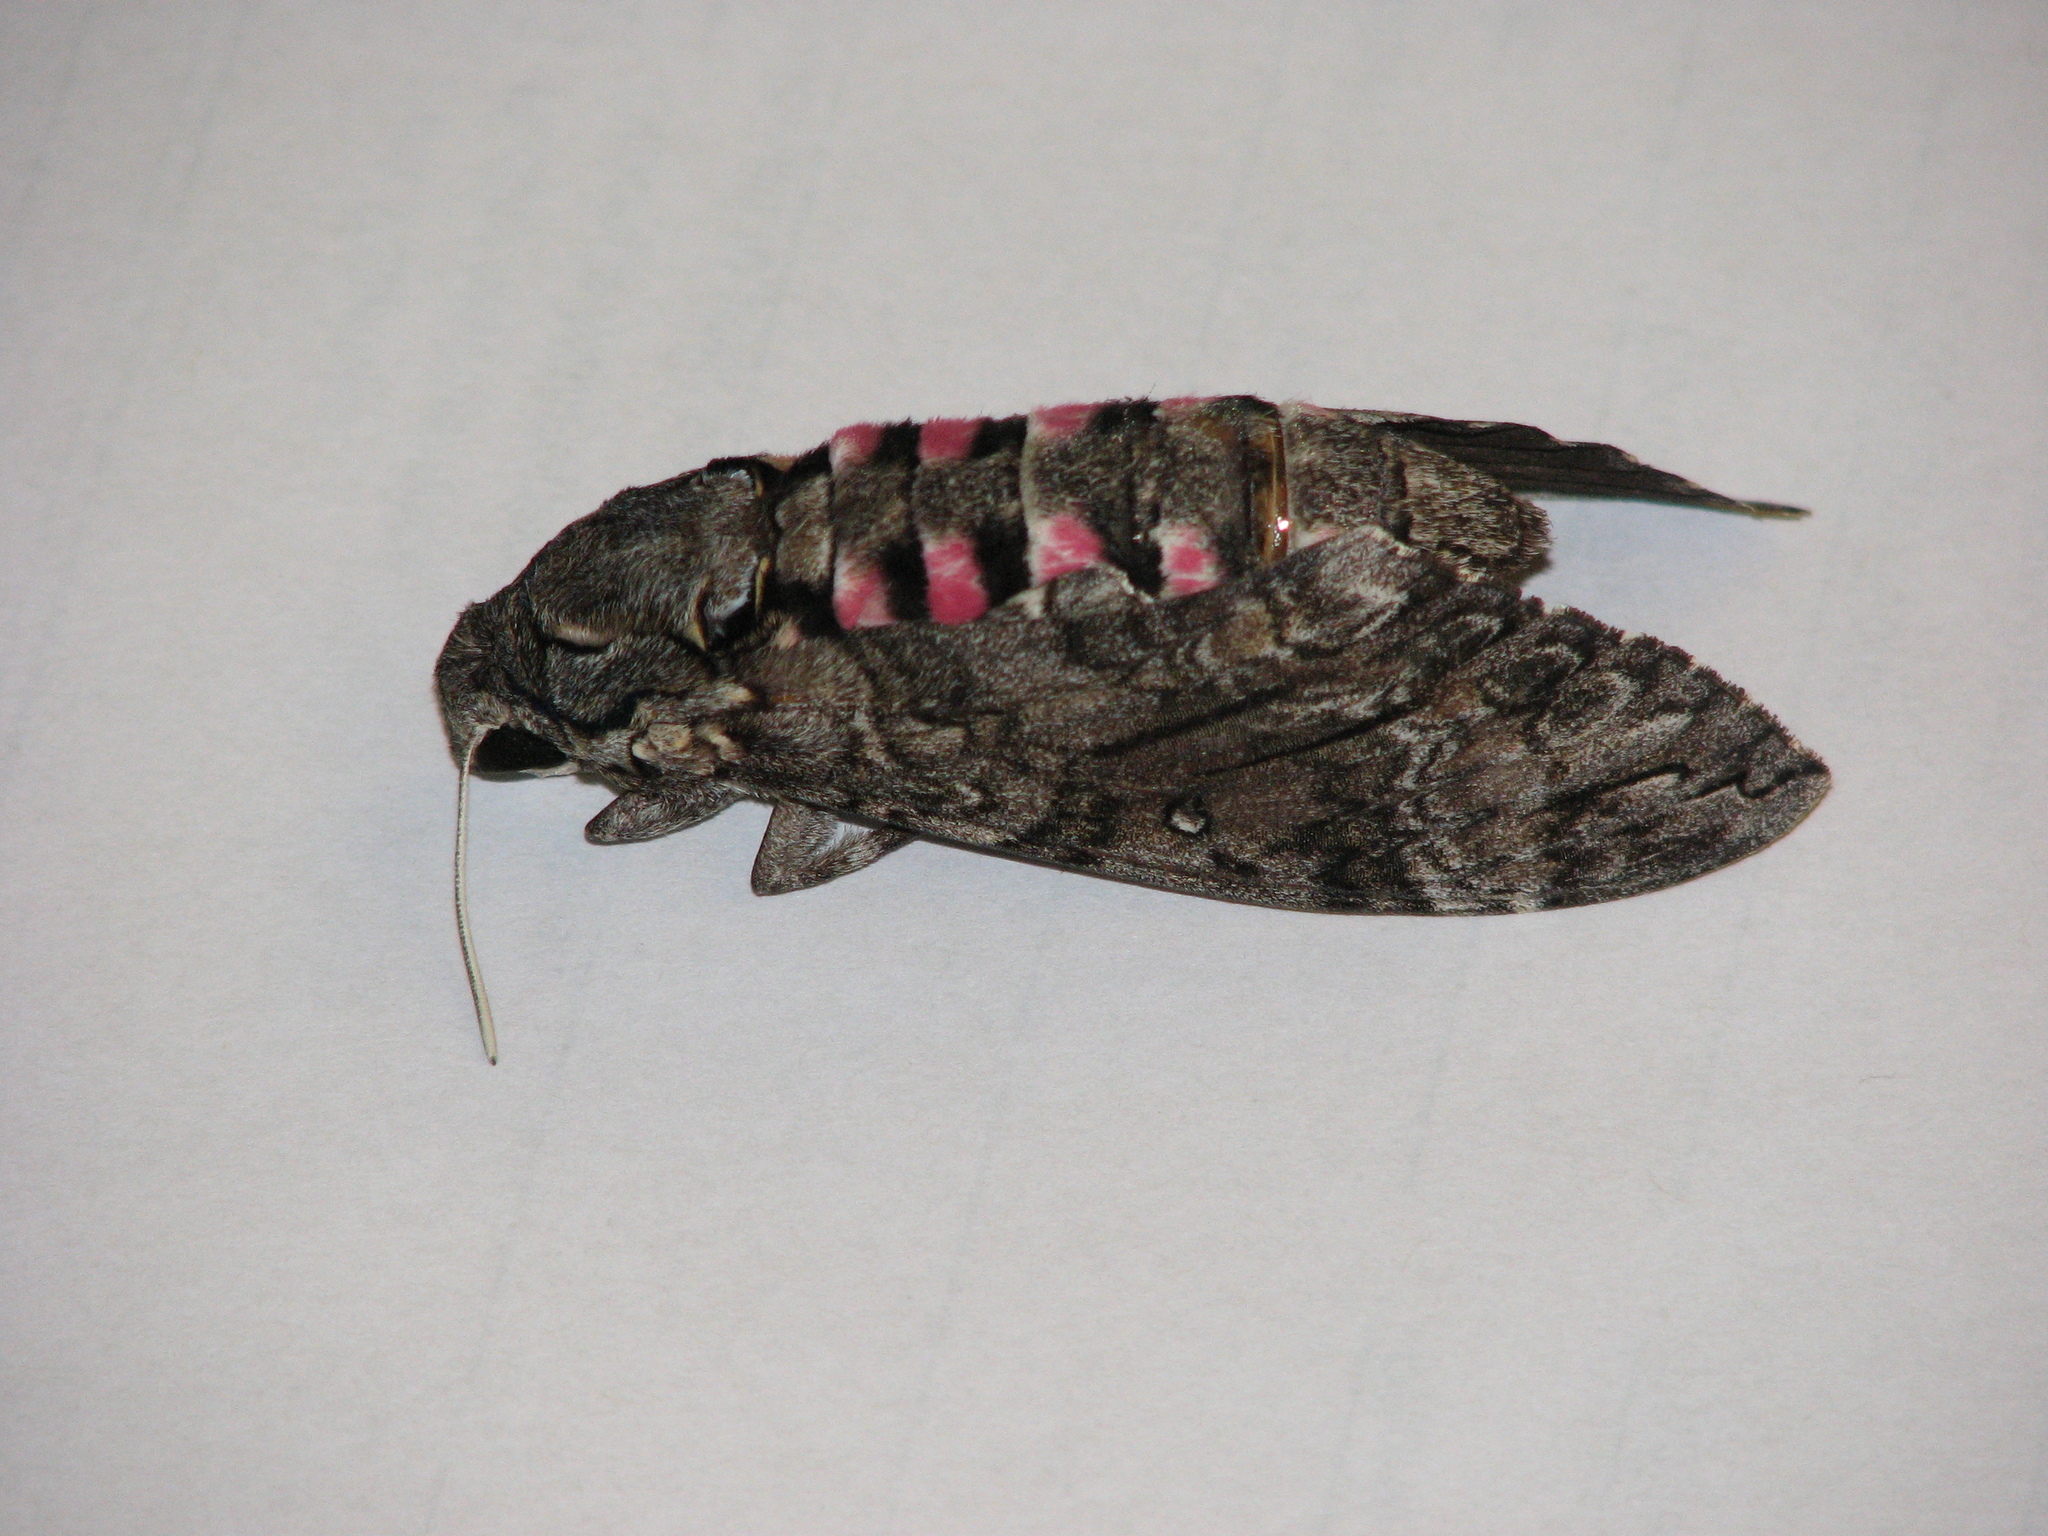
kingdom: Animalia
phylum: Arthropoda
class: Insecta
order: Lepidoptera
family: Sphingidae
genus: Agrius
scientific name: Agrius cingulata
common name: Pink-spotted hawkmoth
